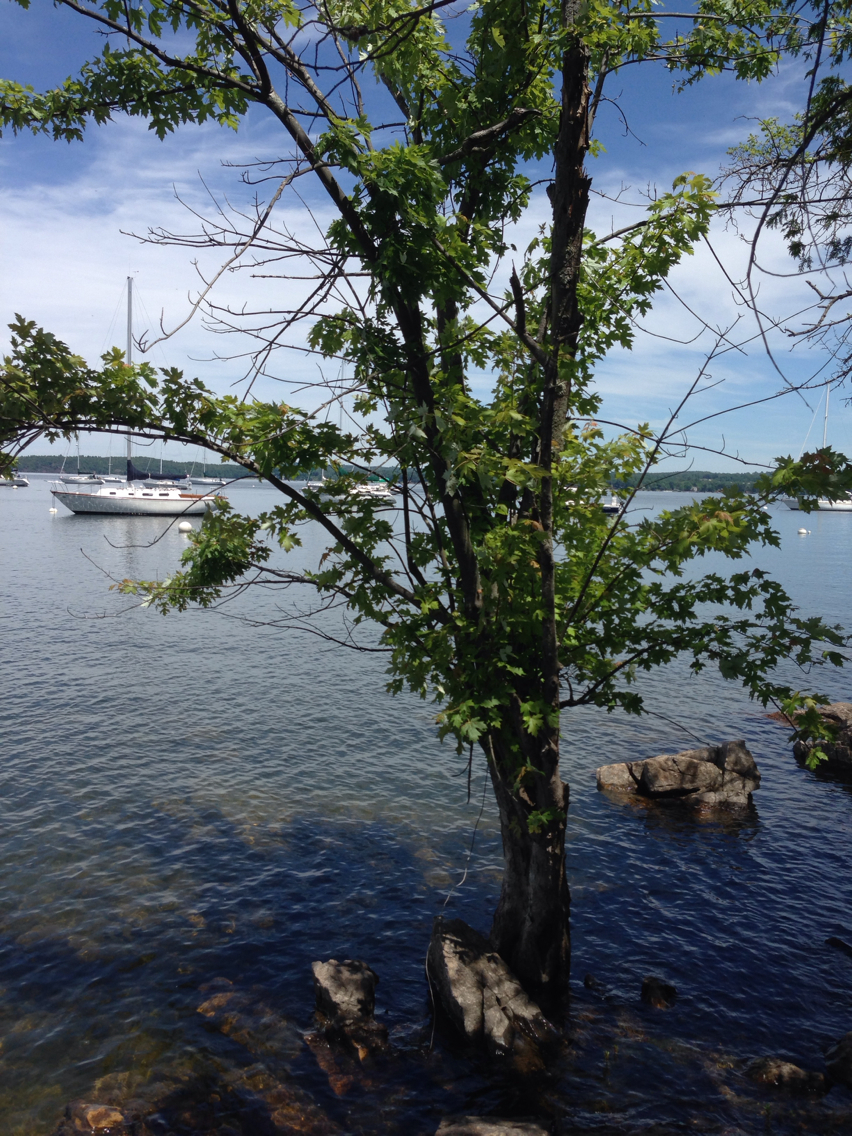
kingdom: Plantae
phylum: Tracheophyta
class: Magnoliopsida
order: Sapindales
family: Sapindaceae
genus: Acer
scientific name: Acer saccharinum
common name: Silver maple
